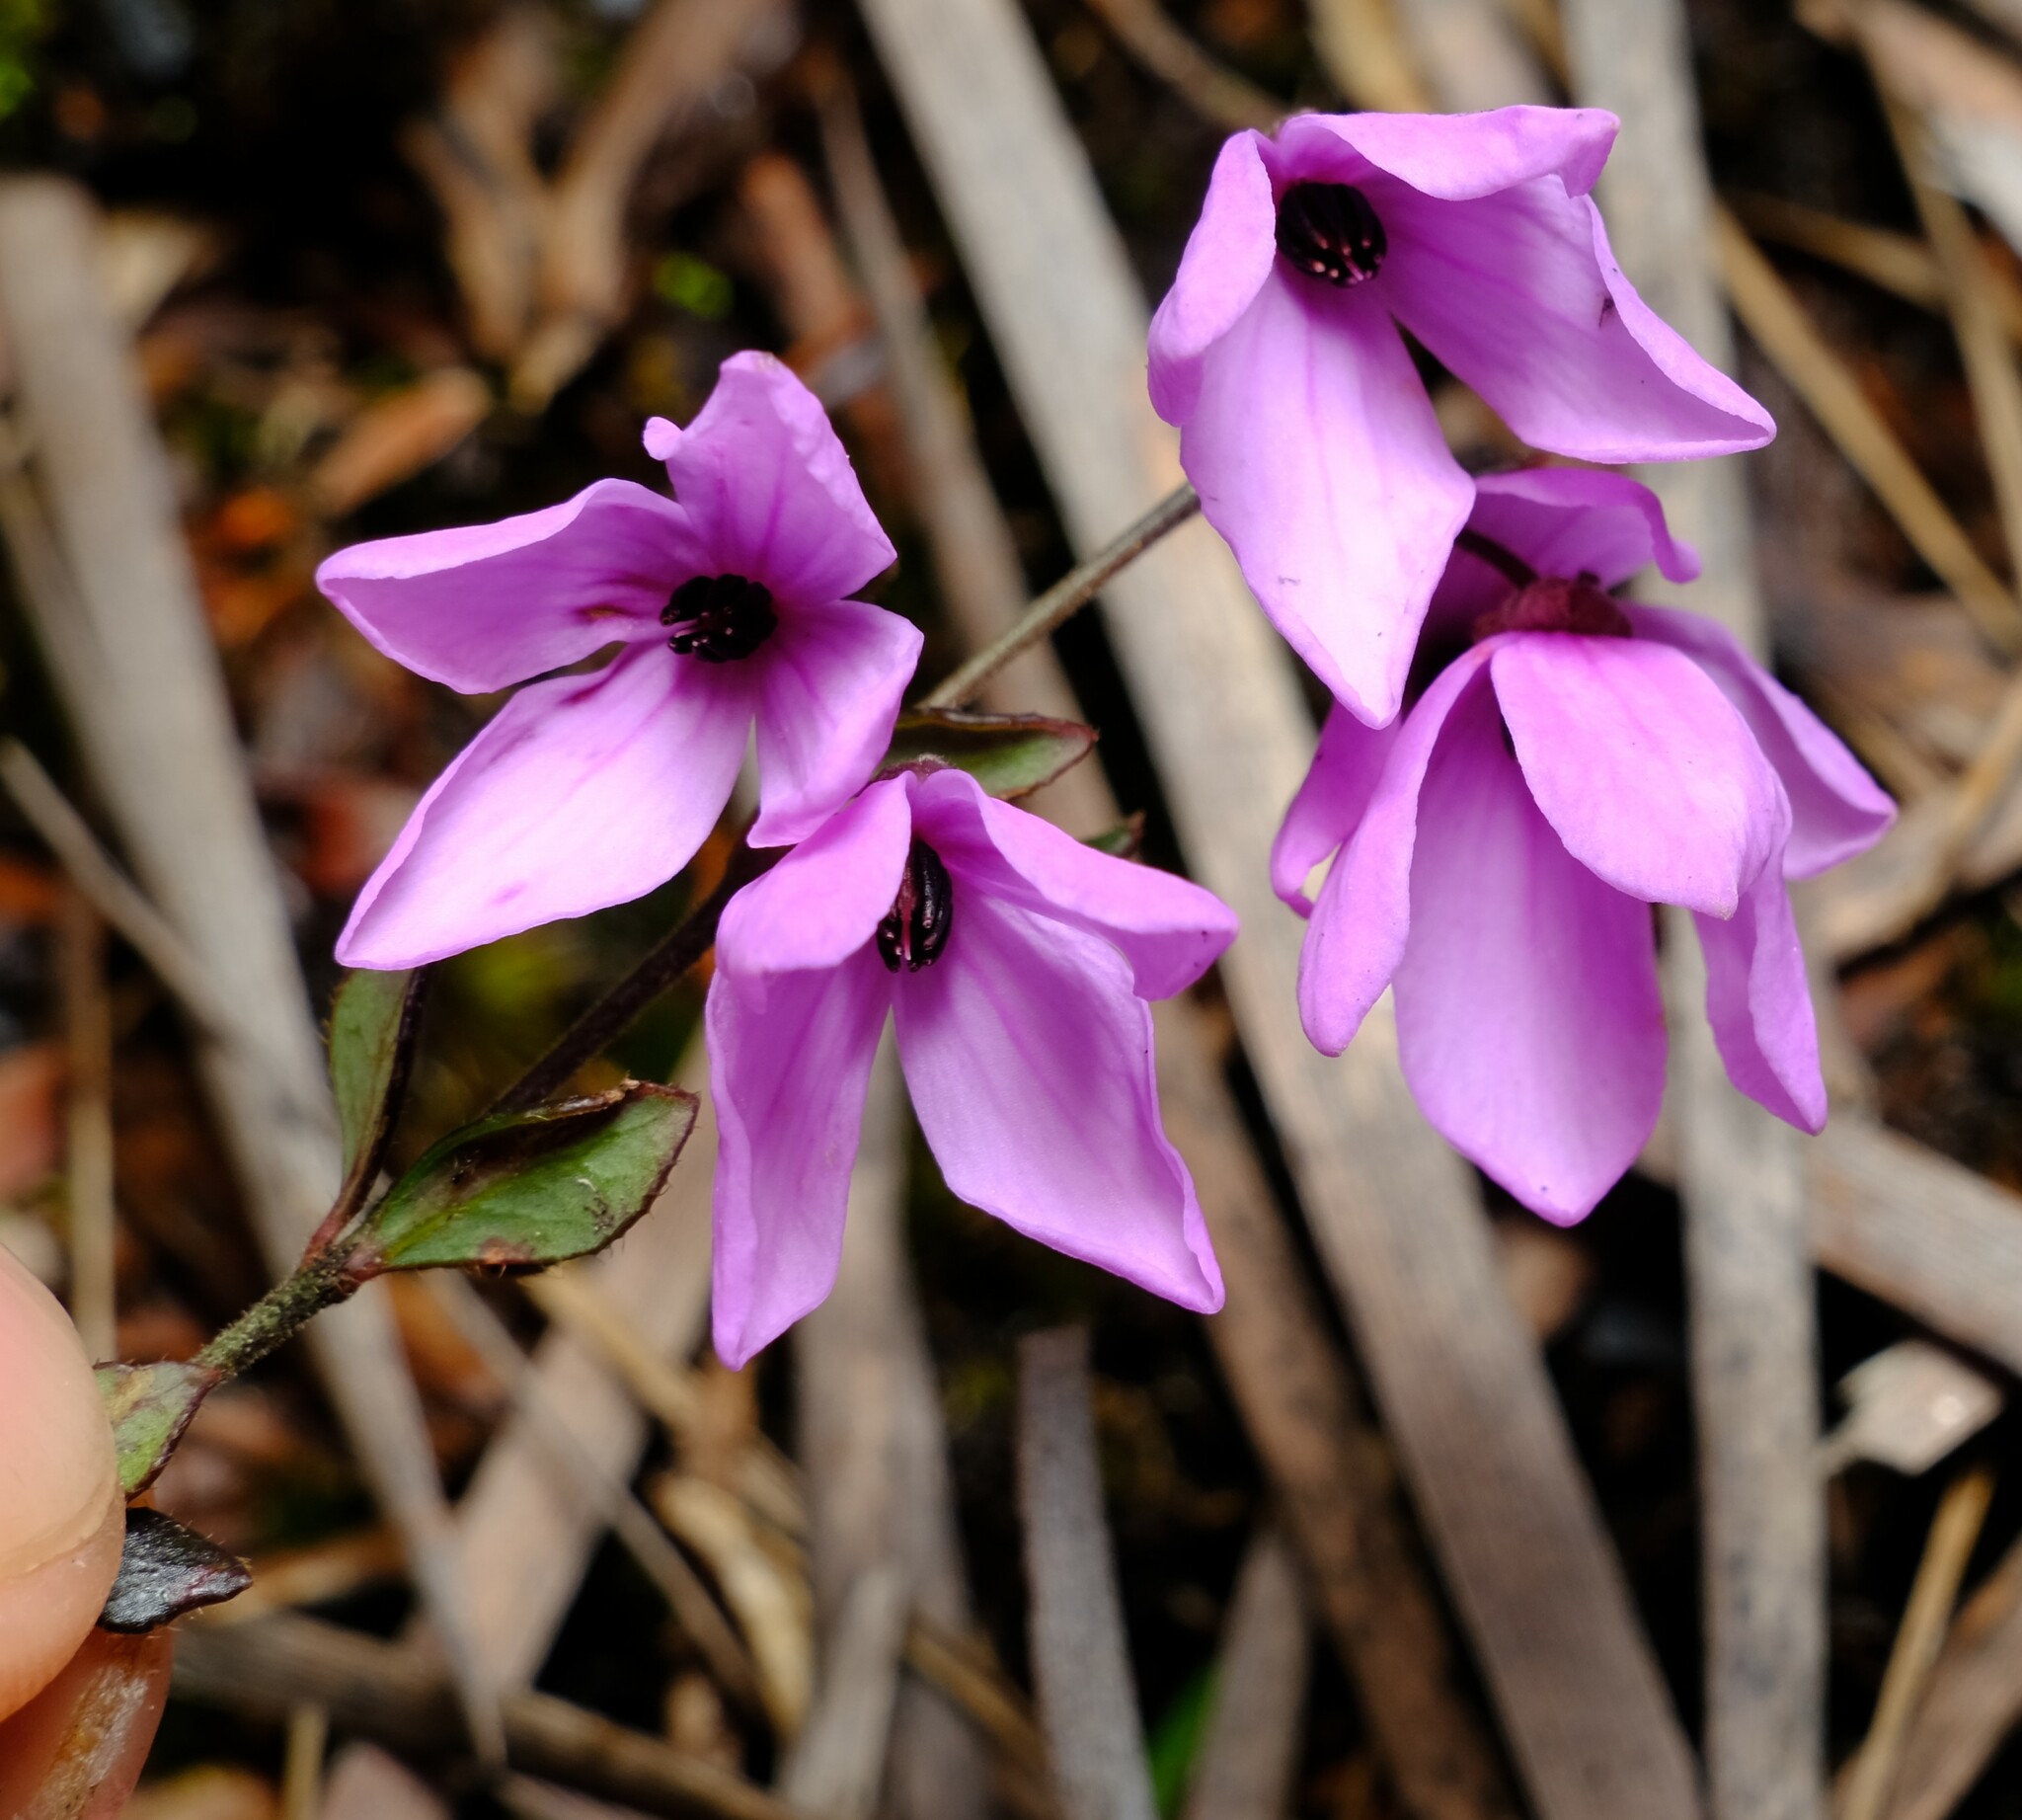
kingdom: Plantae
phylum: Tracheophyta
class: Magnoliopsida
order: Oxalidales
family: Elaeocarpaceae
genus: Tetratheca
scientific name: Tetratheca ciliata
